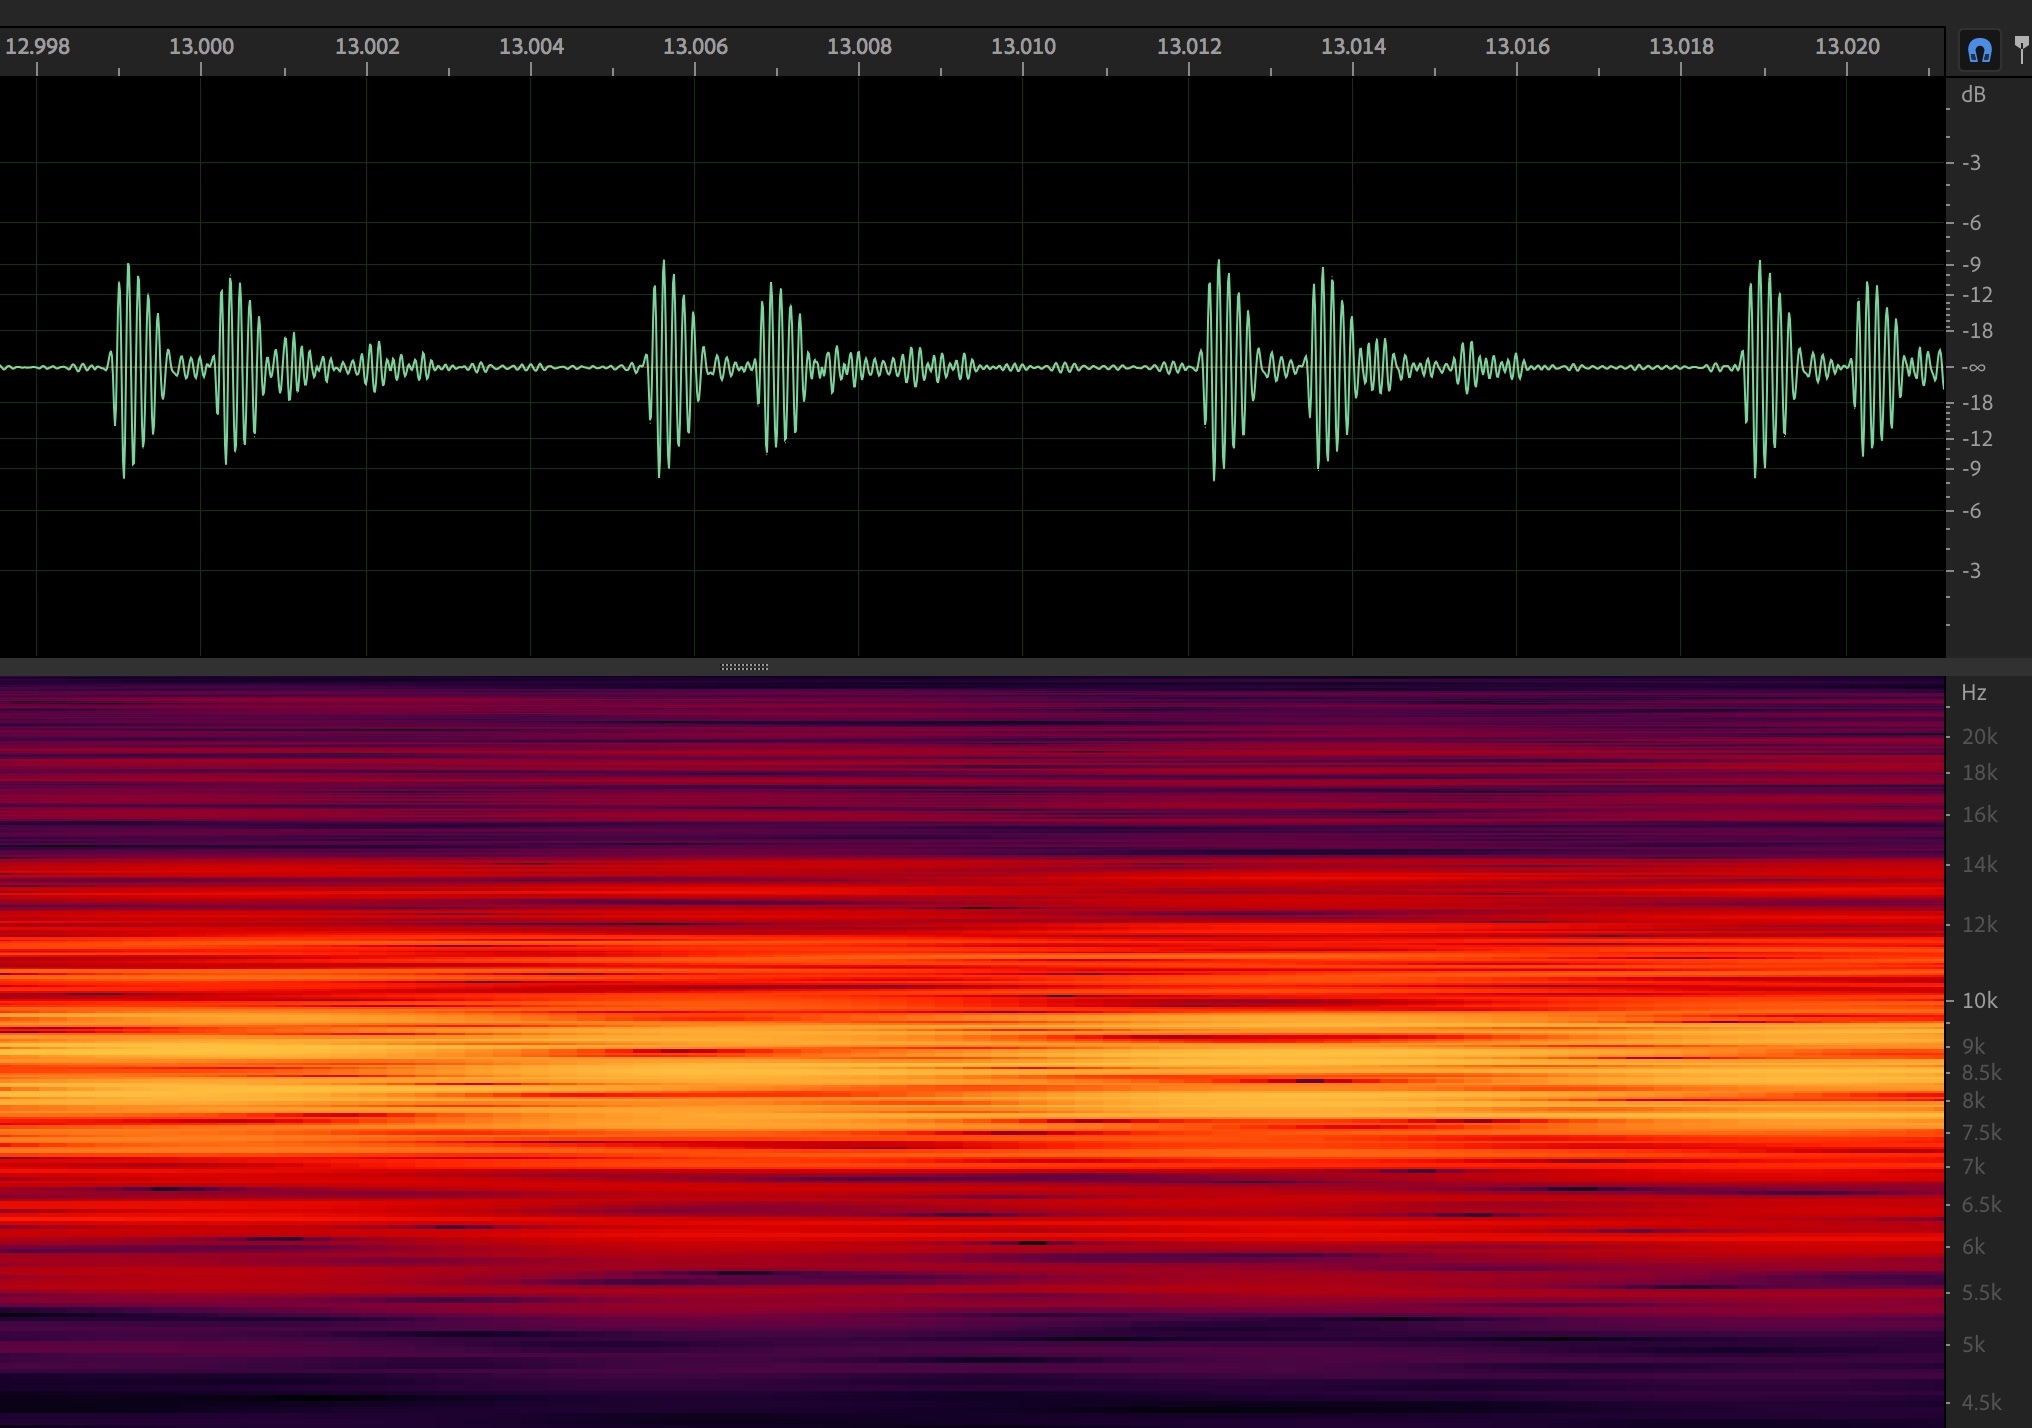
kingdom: Animalia
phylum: Arthropoda
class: Insecta
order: Hemiptera
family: Cicadidae
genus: Diceroprocta
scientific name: Diceroprocta eugraphica
